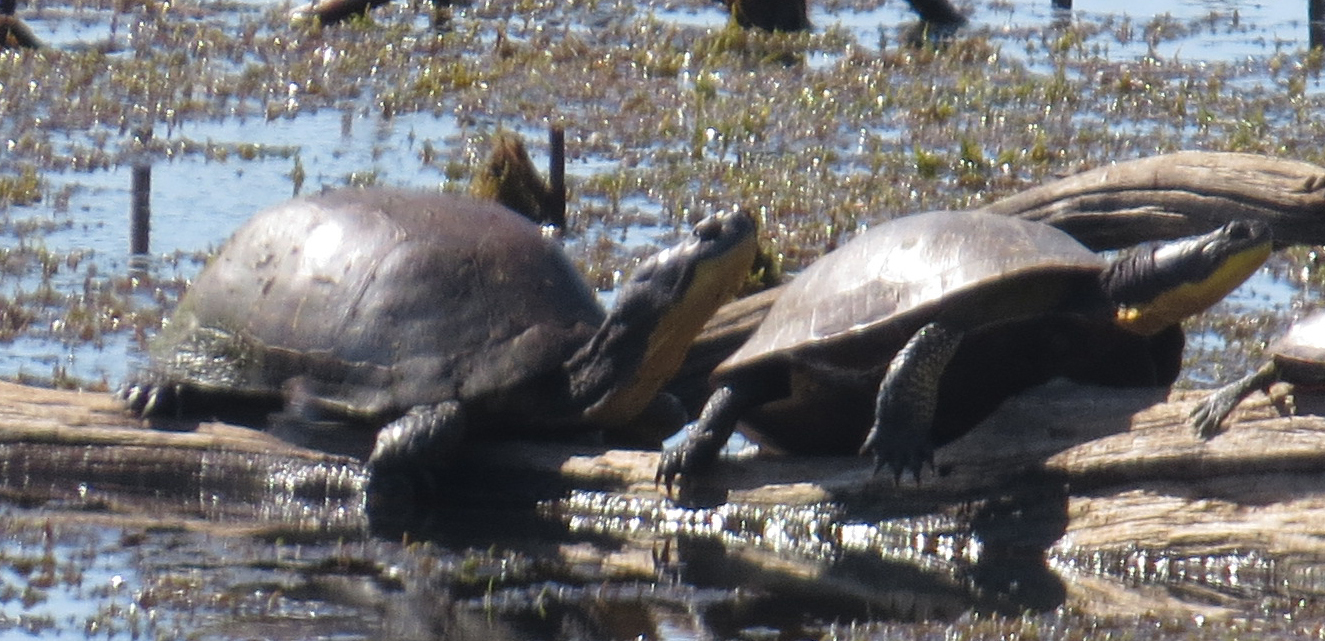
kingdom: Animalia
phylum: Chordata
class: Testudines
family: Emydidae
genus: Emys
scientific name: Emys blandingii
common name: Blanding's turtle
